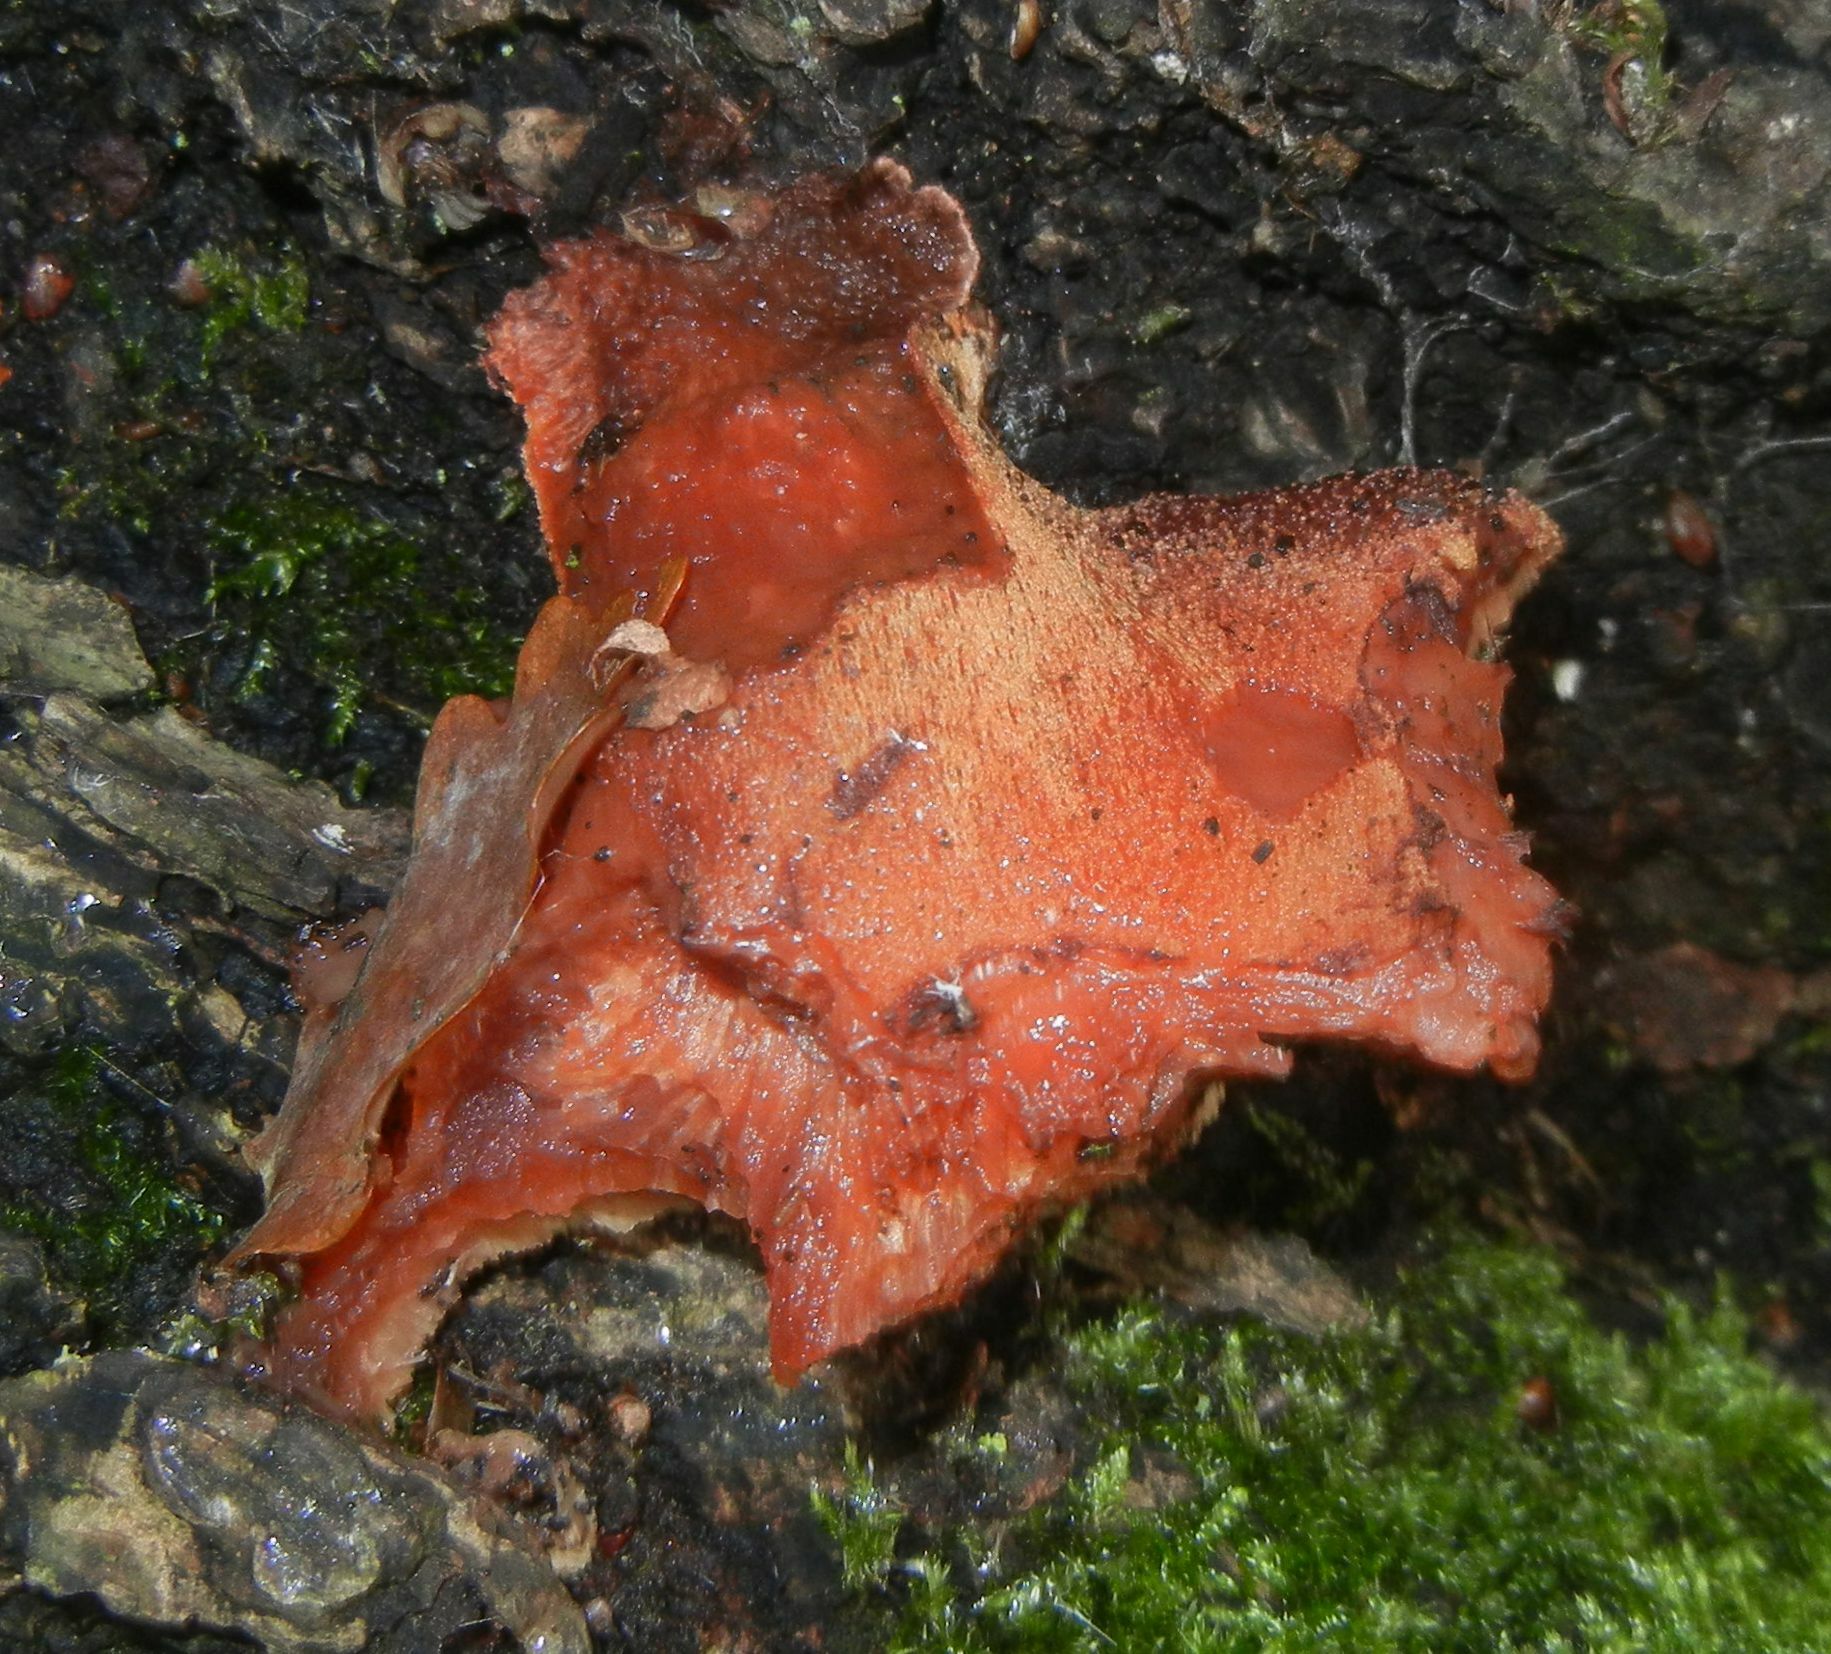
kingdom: Fungi
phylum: Basidiomycota
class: Agaricomycetes
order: Agaricales
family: Fistulinaceae
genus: Fistulina
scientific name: Fistulina hepatica
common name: Beef-steak fungus
